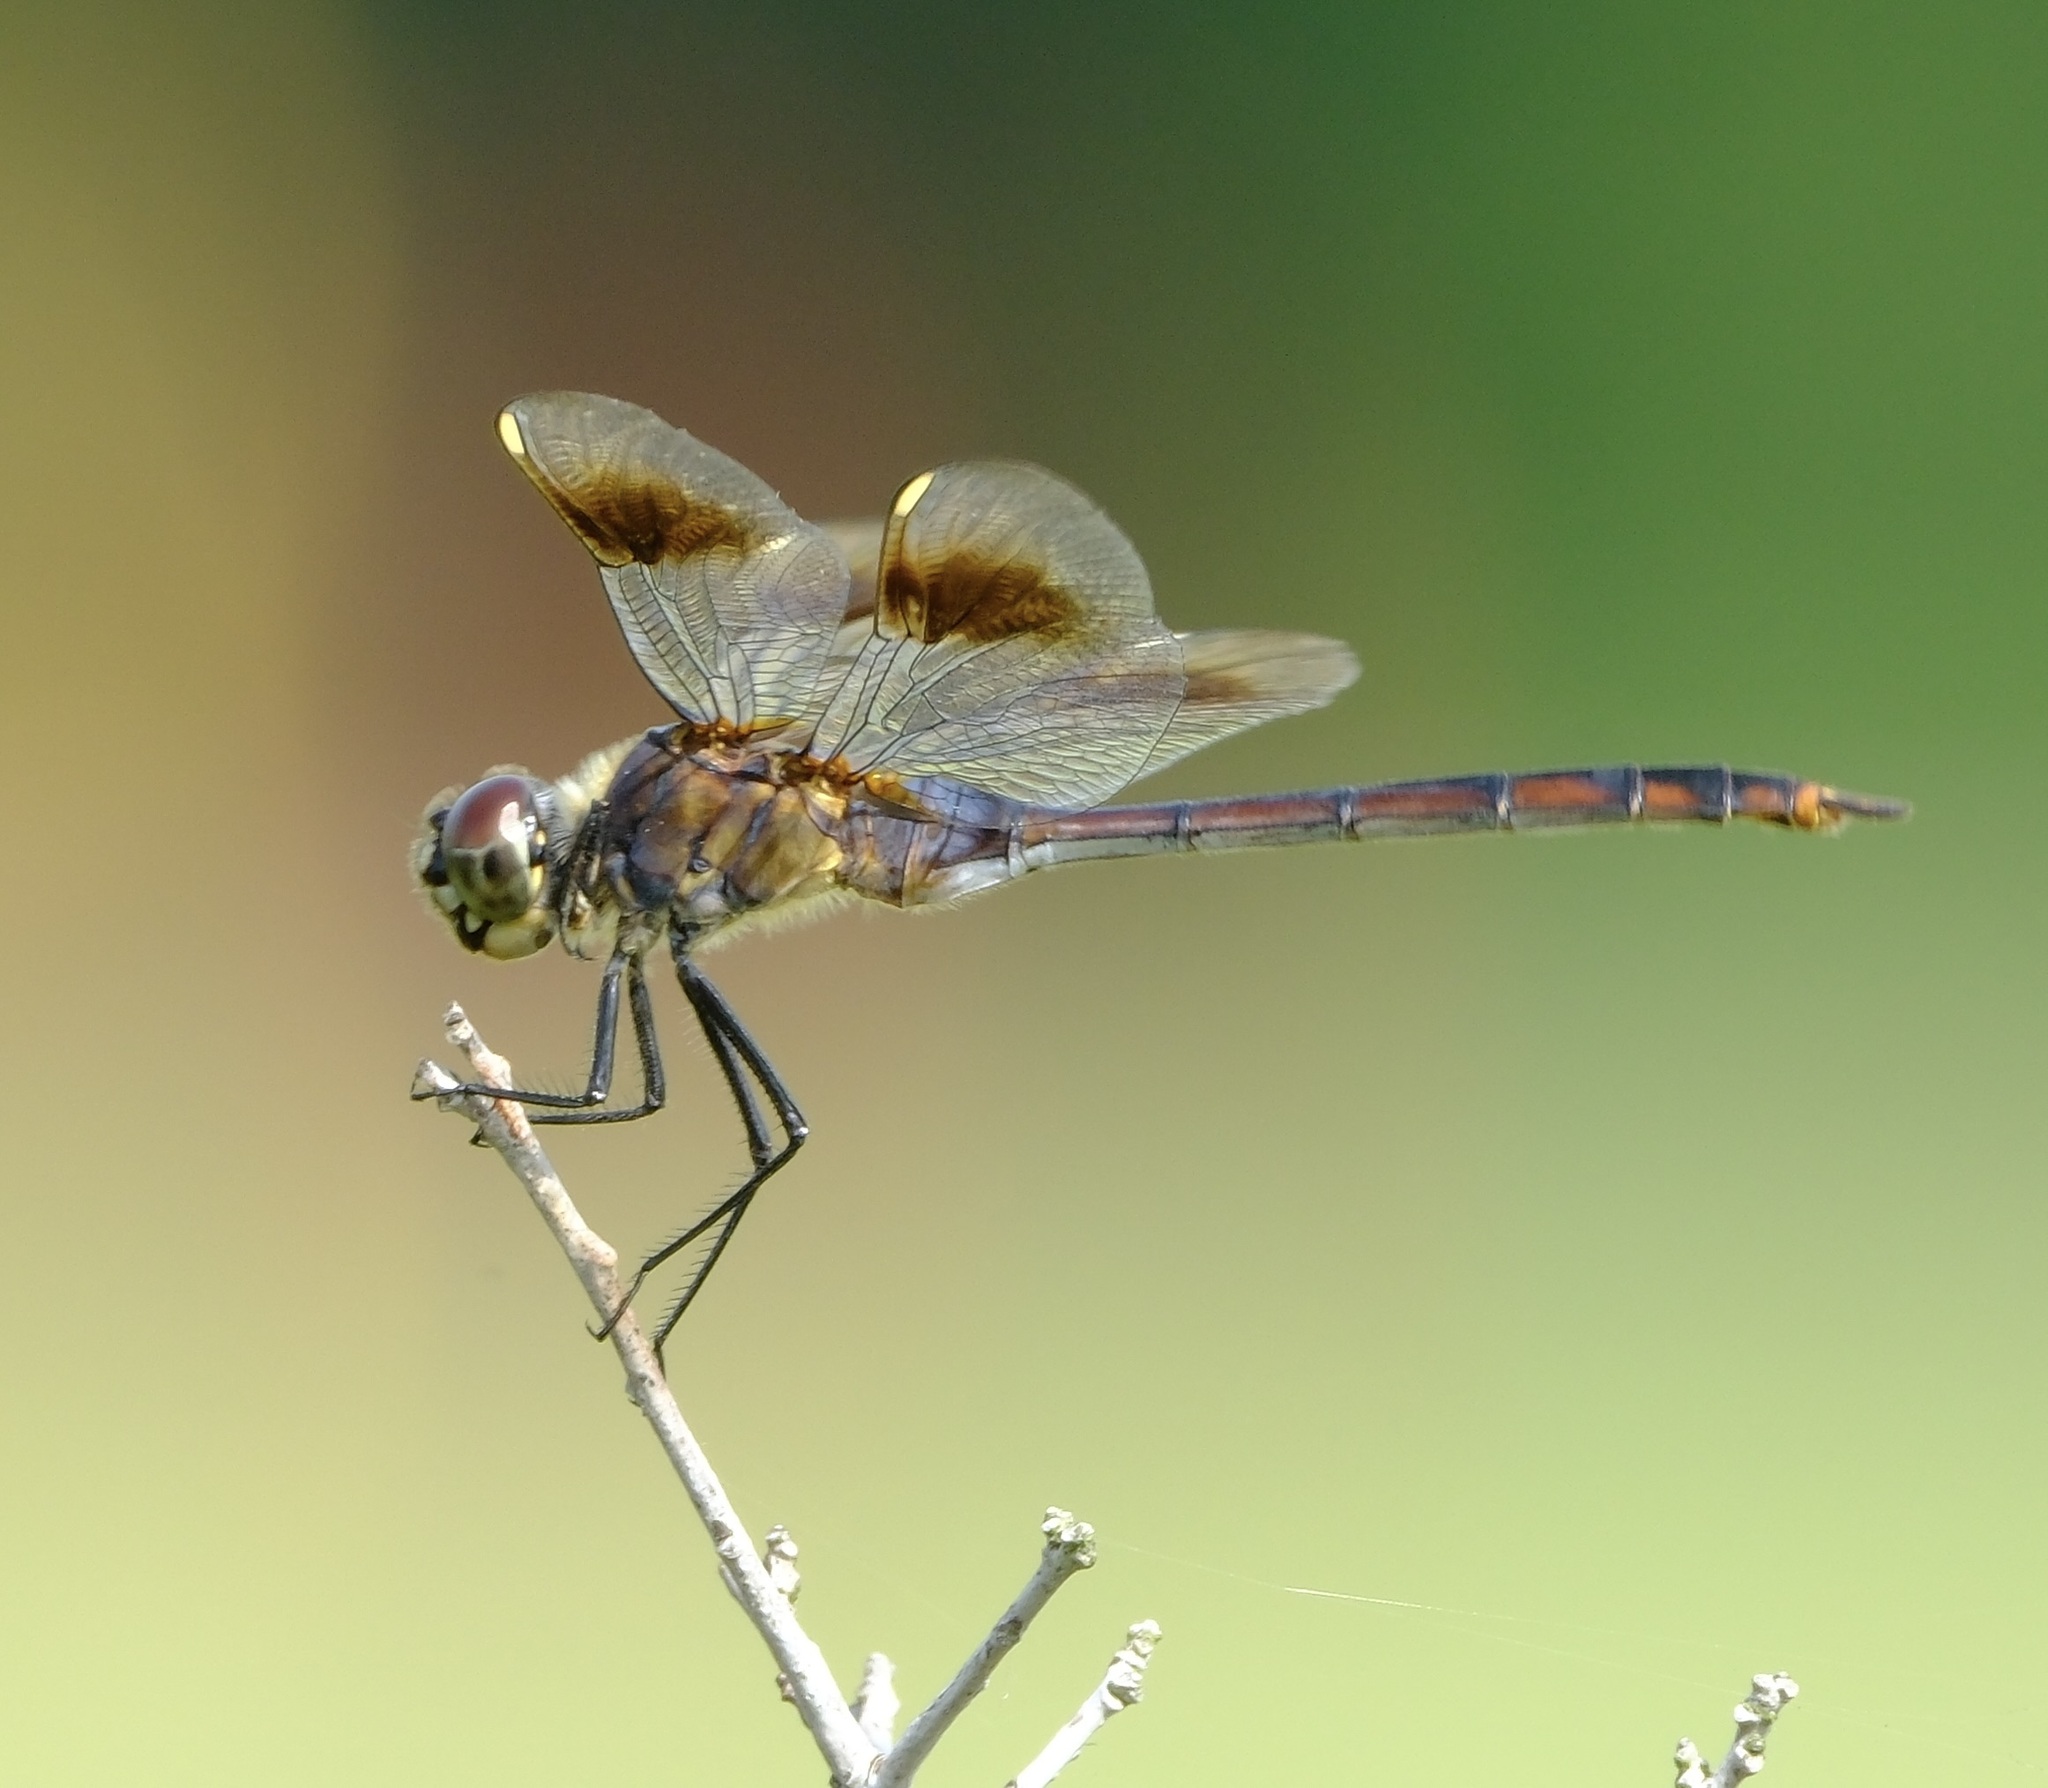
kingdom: Animalia
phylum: Arthropoda
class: Insecta
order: Odonata
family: Libellulidae
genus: Brachymesia
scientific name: Brachymesia gravida
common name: Four-spotted pennant
